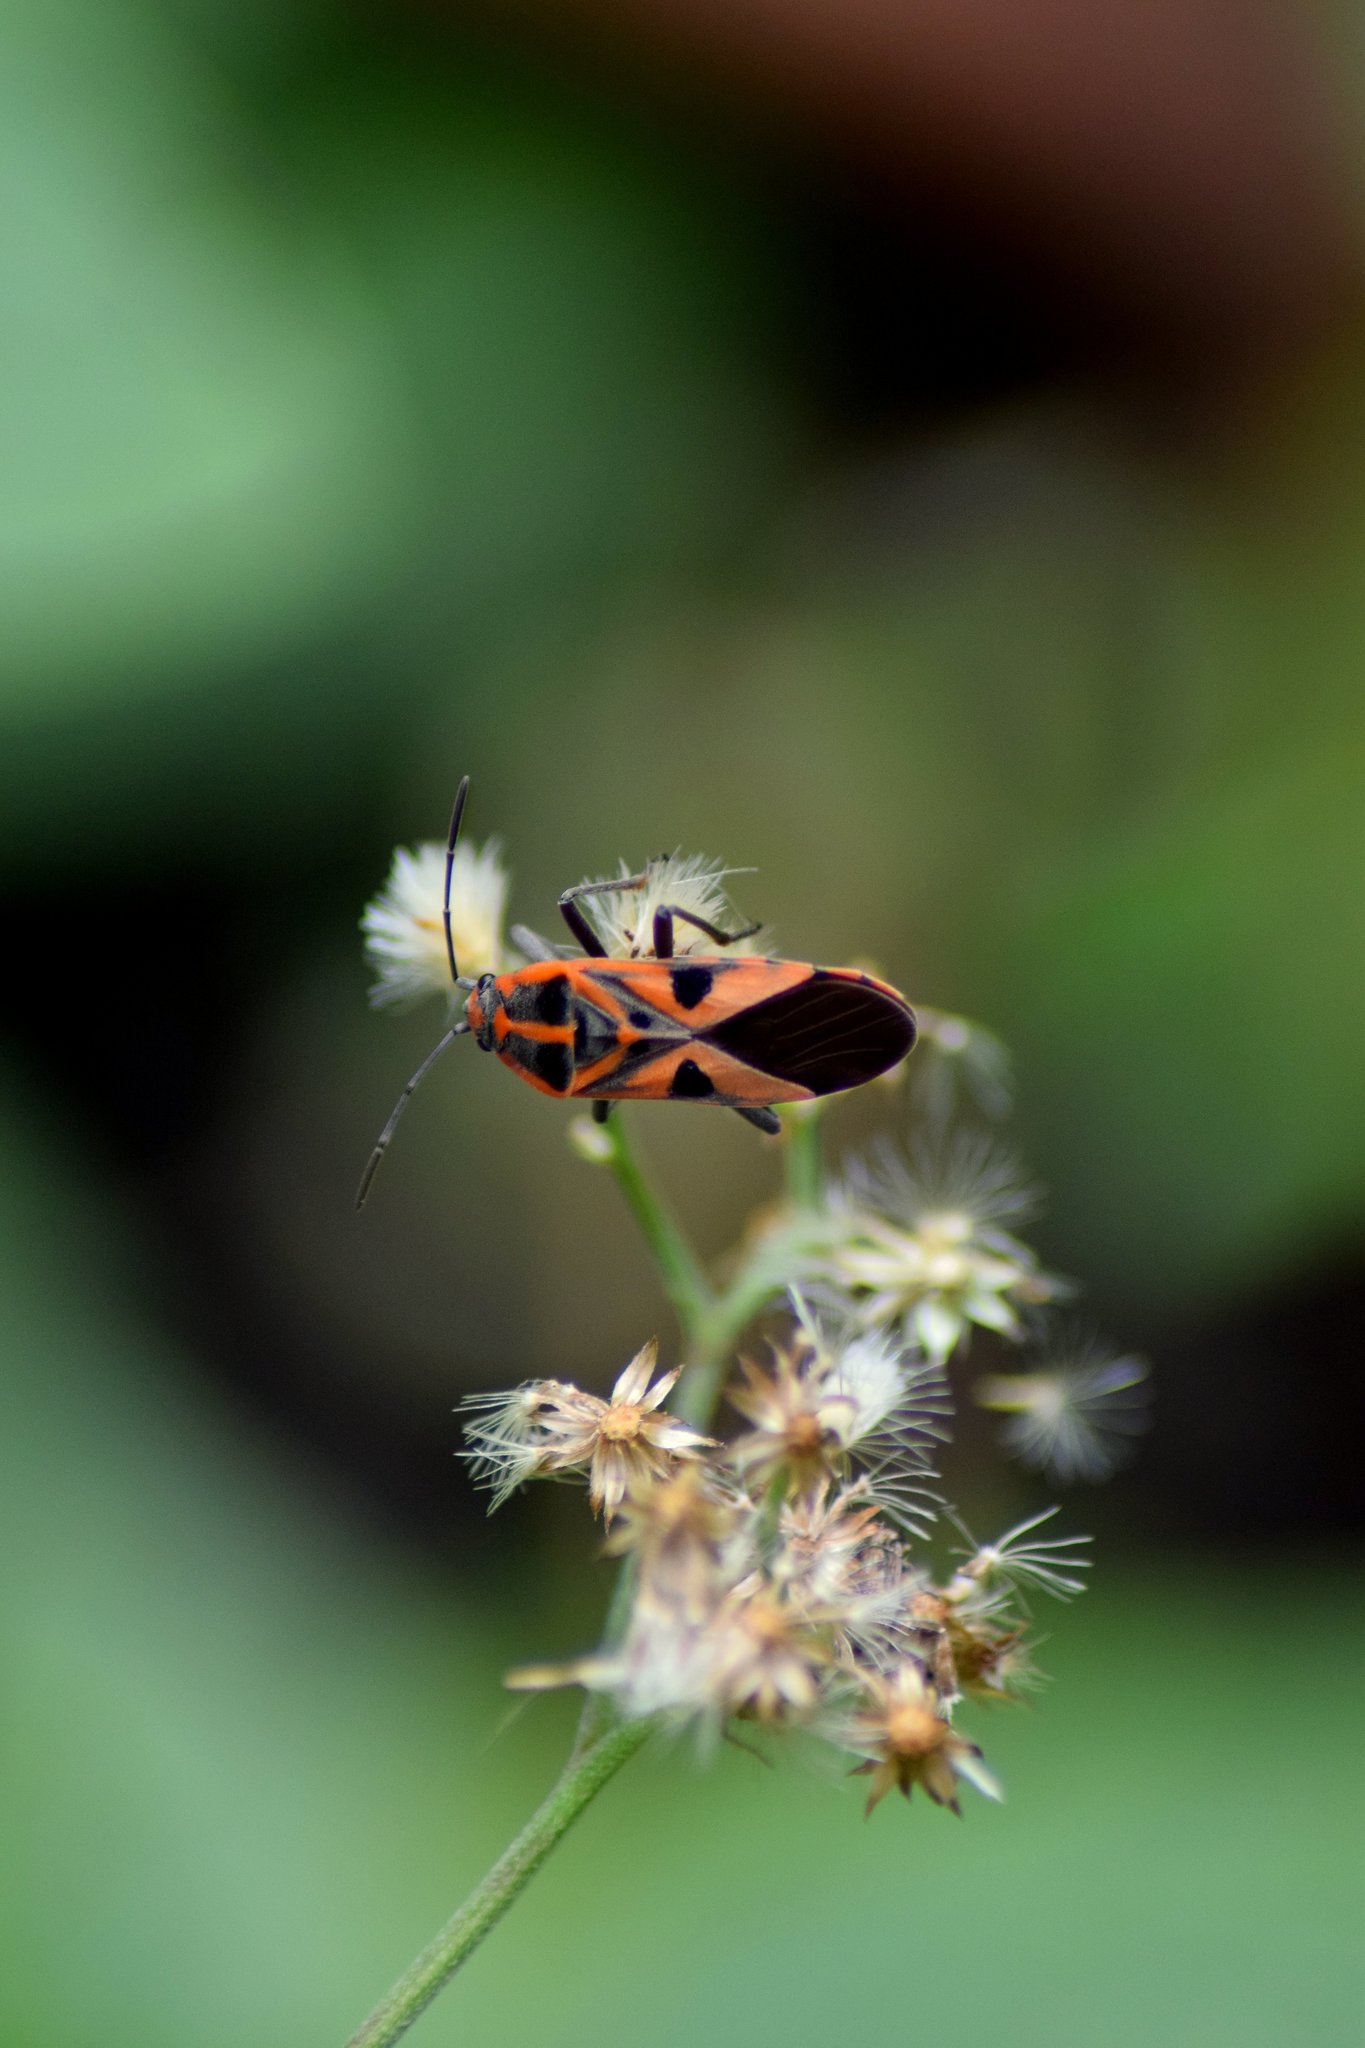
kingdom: Animalia
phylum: Arthropoda
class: Insecta
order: Hemiptera
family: Lygaeidae
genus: Spilostethus
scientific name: Spilostethus hospes
